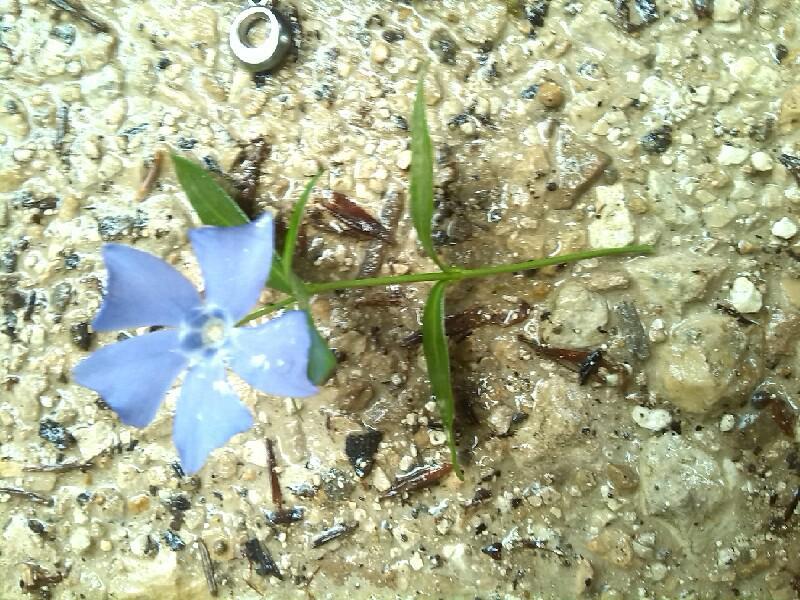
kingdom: Plantae
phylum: Tracheophyta
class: Magnoliopsida
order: Gentianales
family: Apocynaceae
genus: Vinca
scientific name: Vinca minor
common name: Lesser periwinkle
